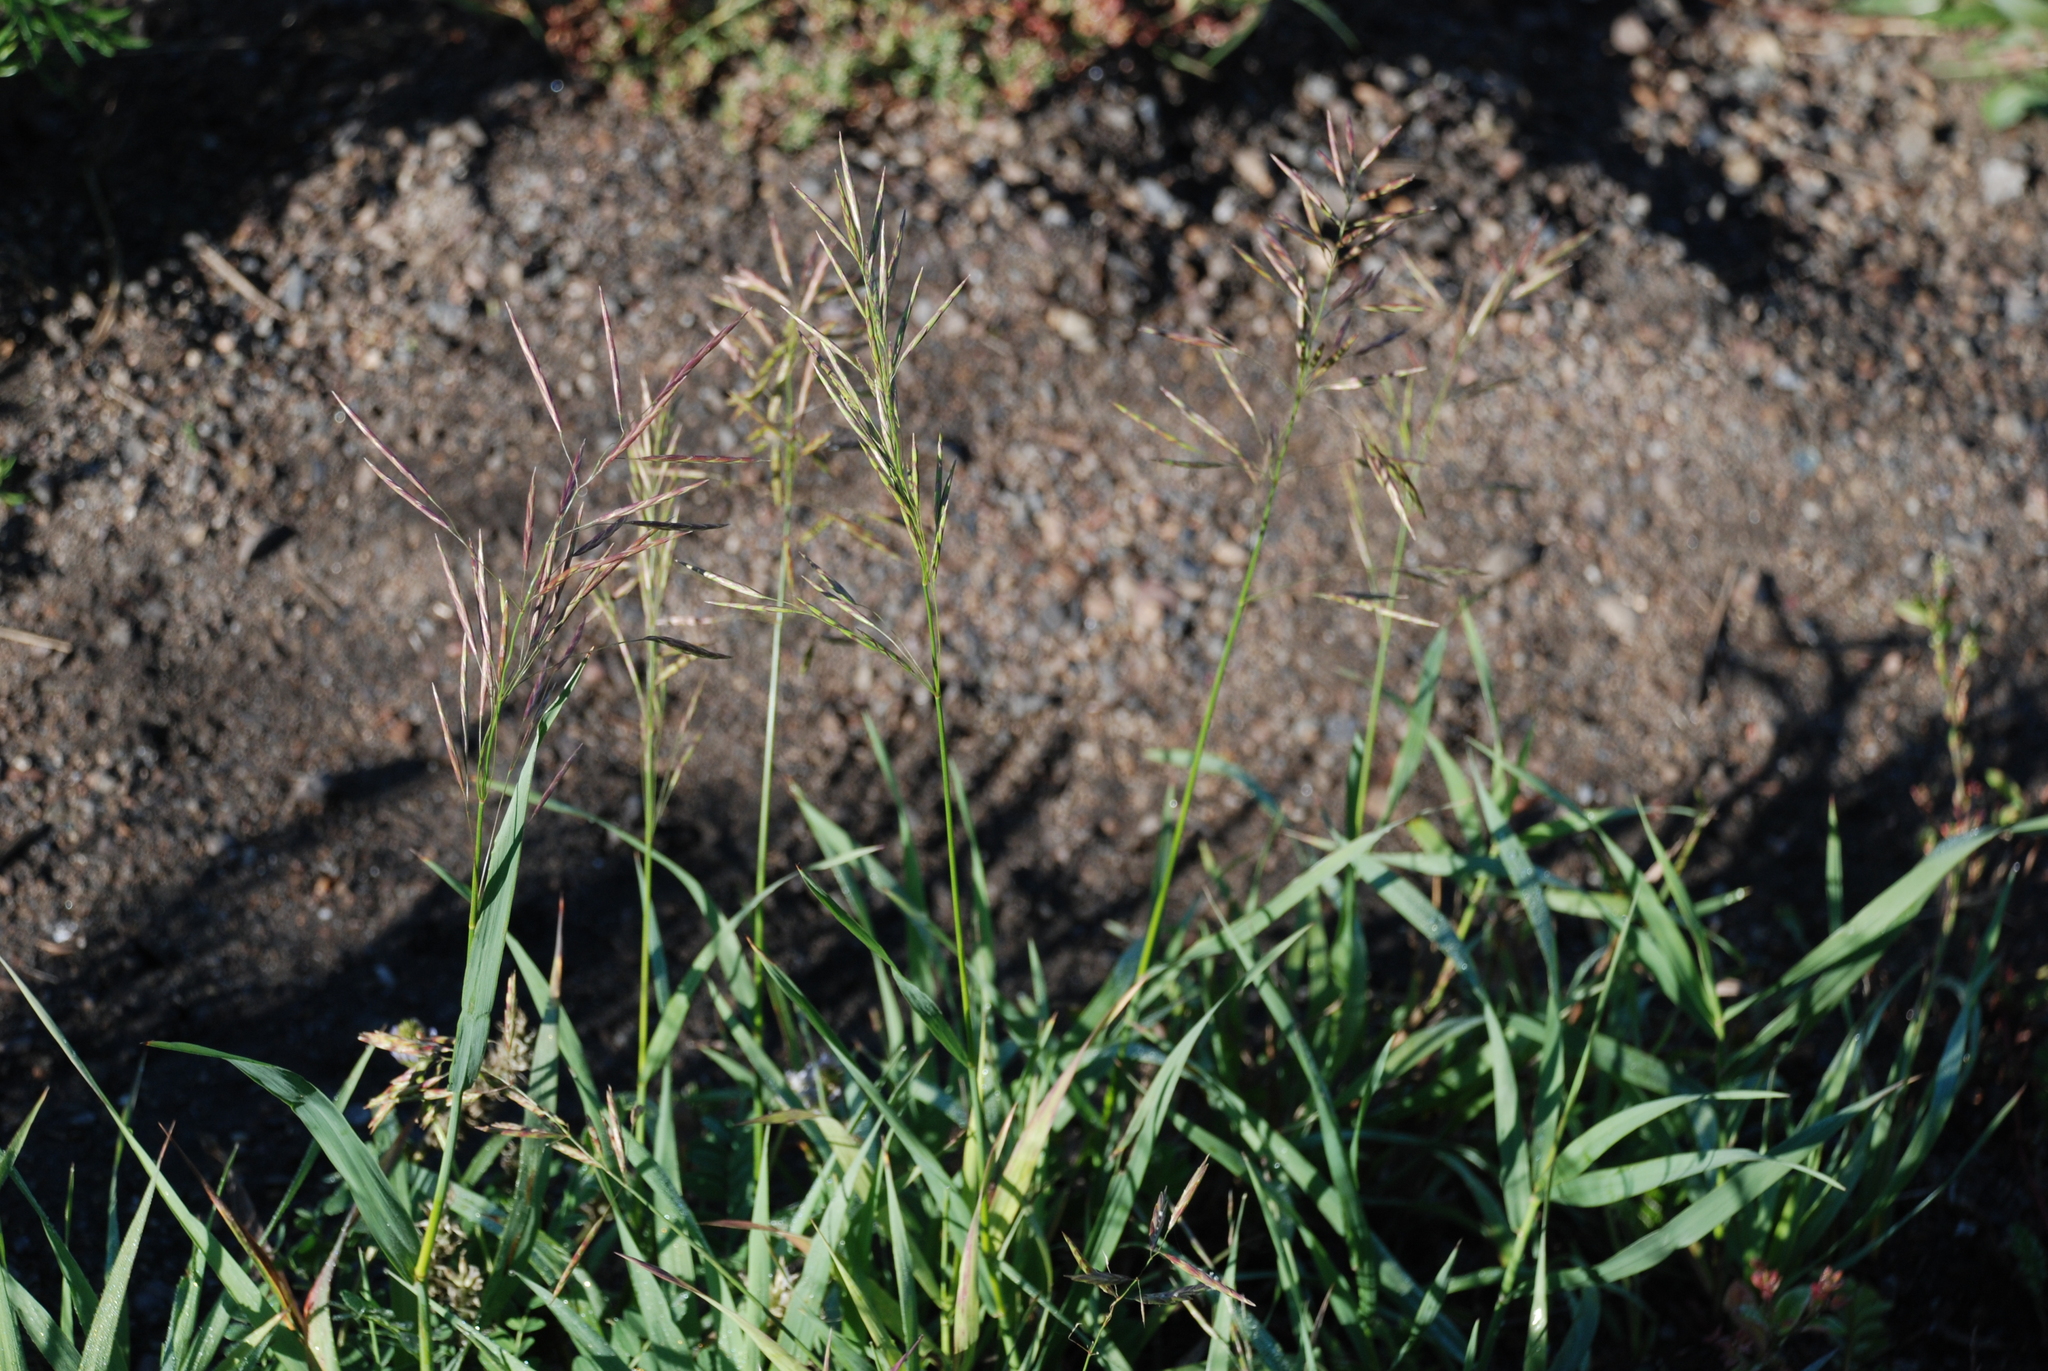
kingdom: Plantae
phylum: Tracheophyta
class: Liliopsida
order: Poales
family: Poaceae
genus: Bromus
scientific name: Bromus inermis
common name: Smooth brome
